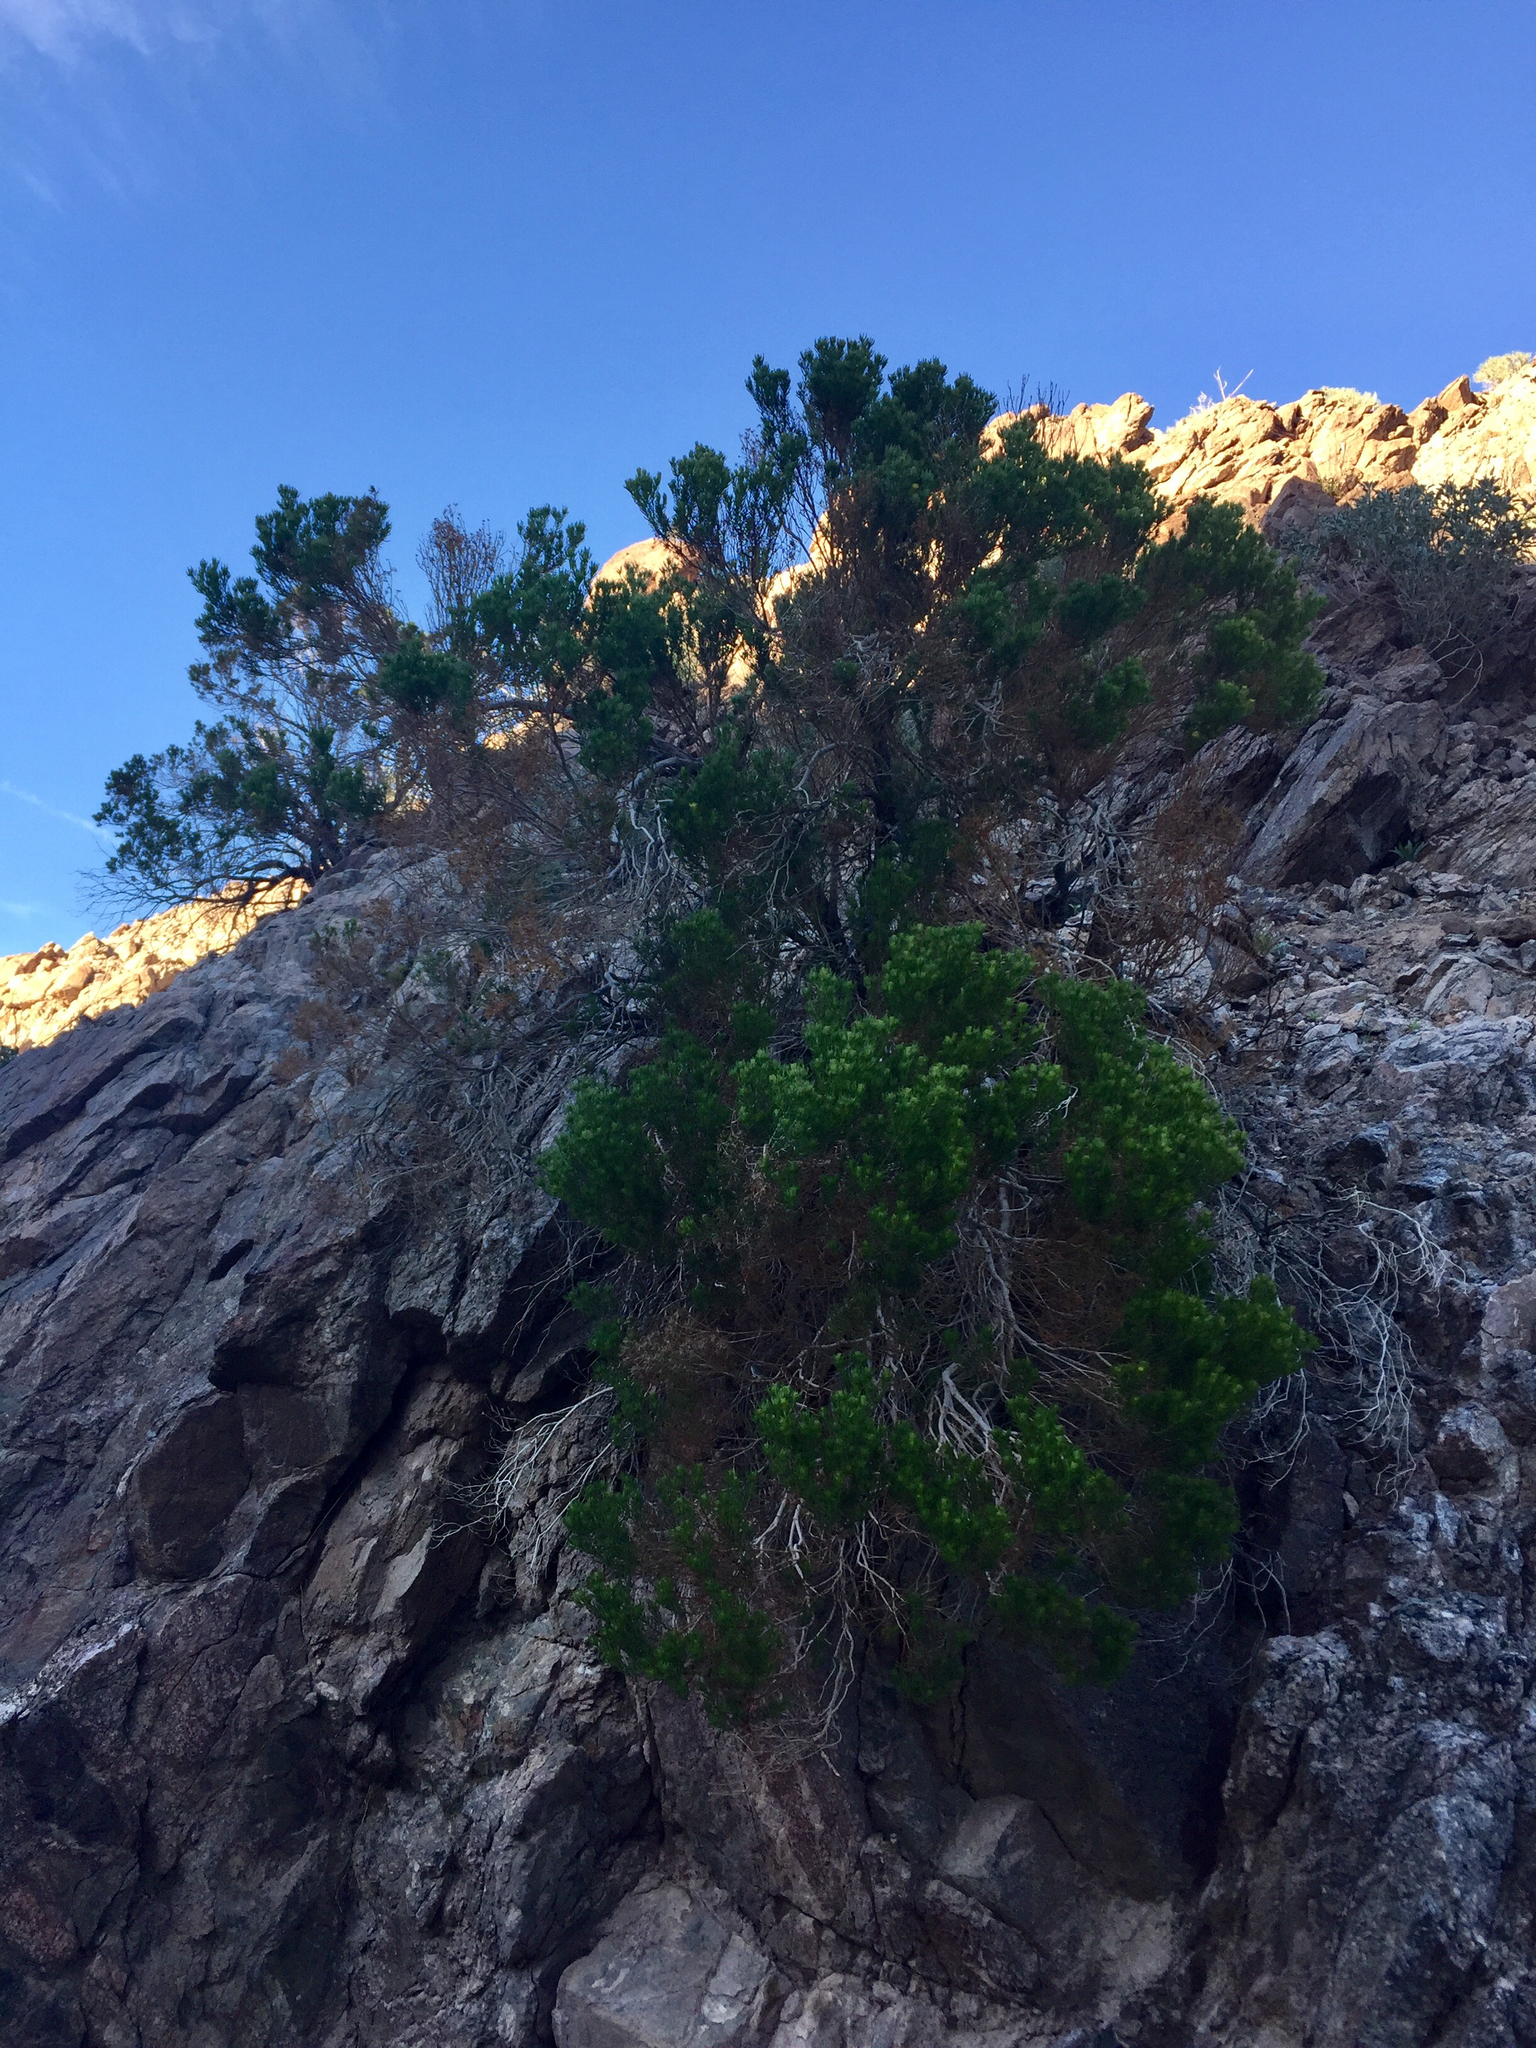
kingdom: Plantae
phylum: Tracheophyta
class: Magnoliopsida
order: Asterales
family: Asteraceae
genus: Peucephyllum
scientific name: Peucephyllum schottii
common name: Pygmy-cedar
